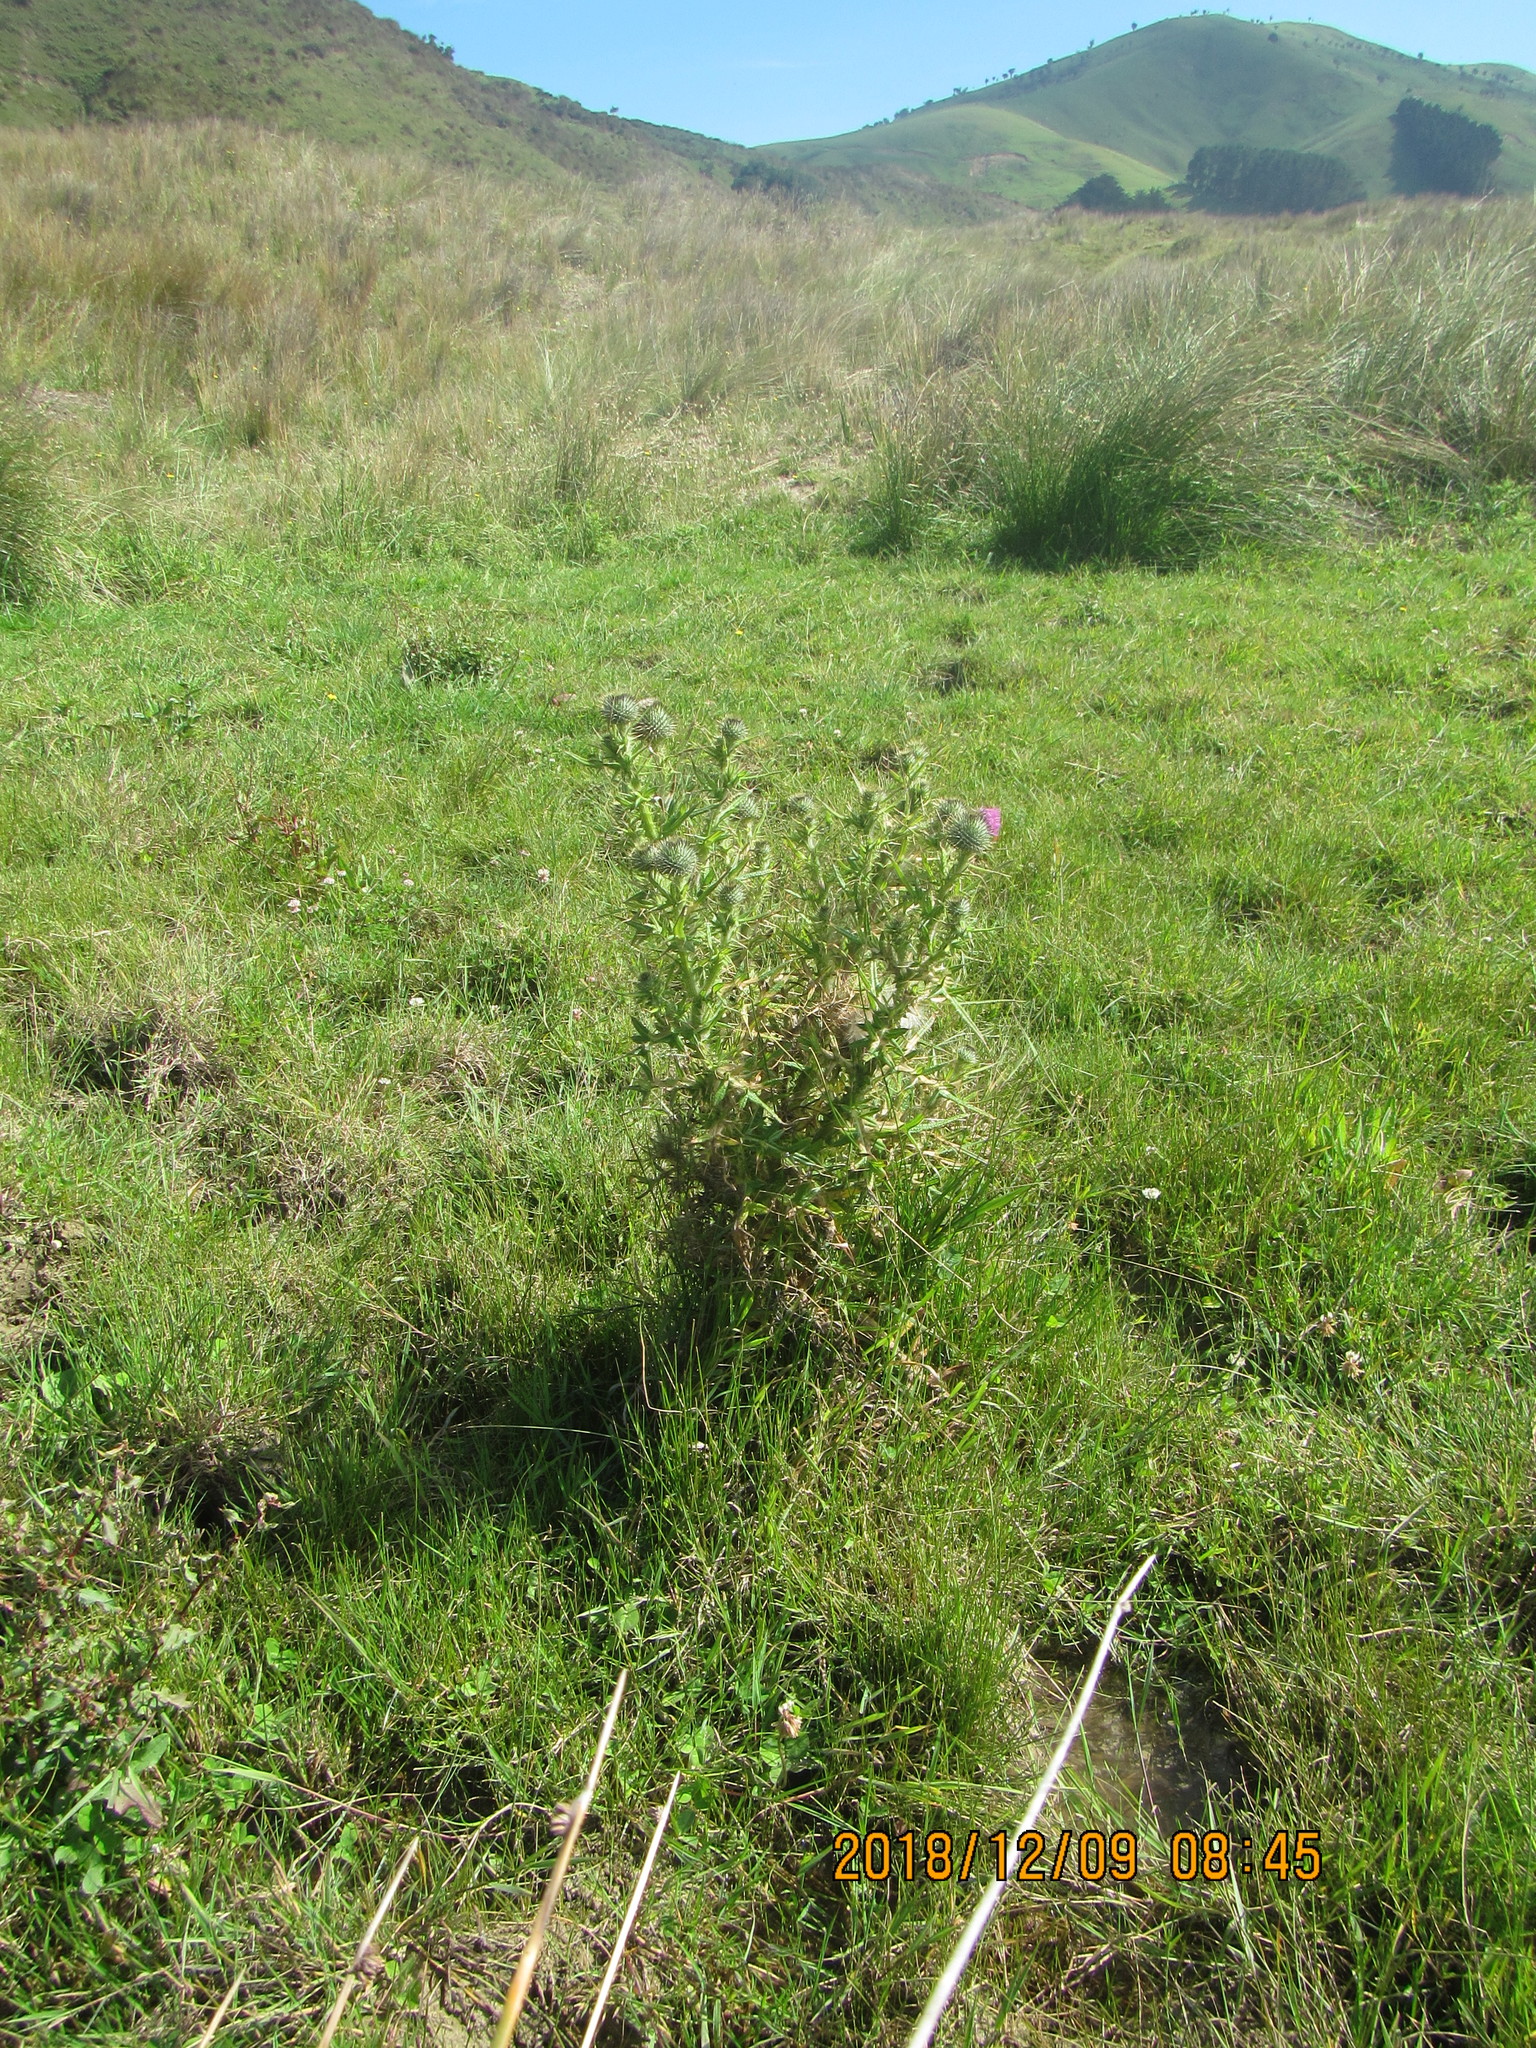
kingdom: Plantae
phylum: Tracheophyta
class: Magnoliopsida
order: Asterales
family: Asteraceae
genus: Cirsium
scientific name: Cirsium vulgare
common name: Bull thistle
